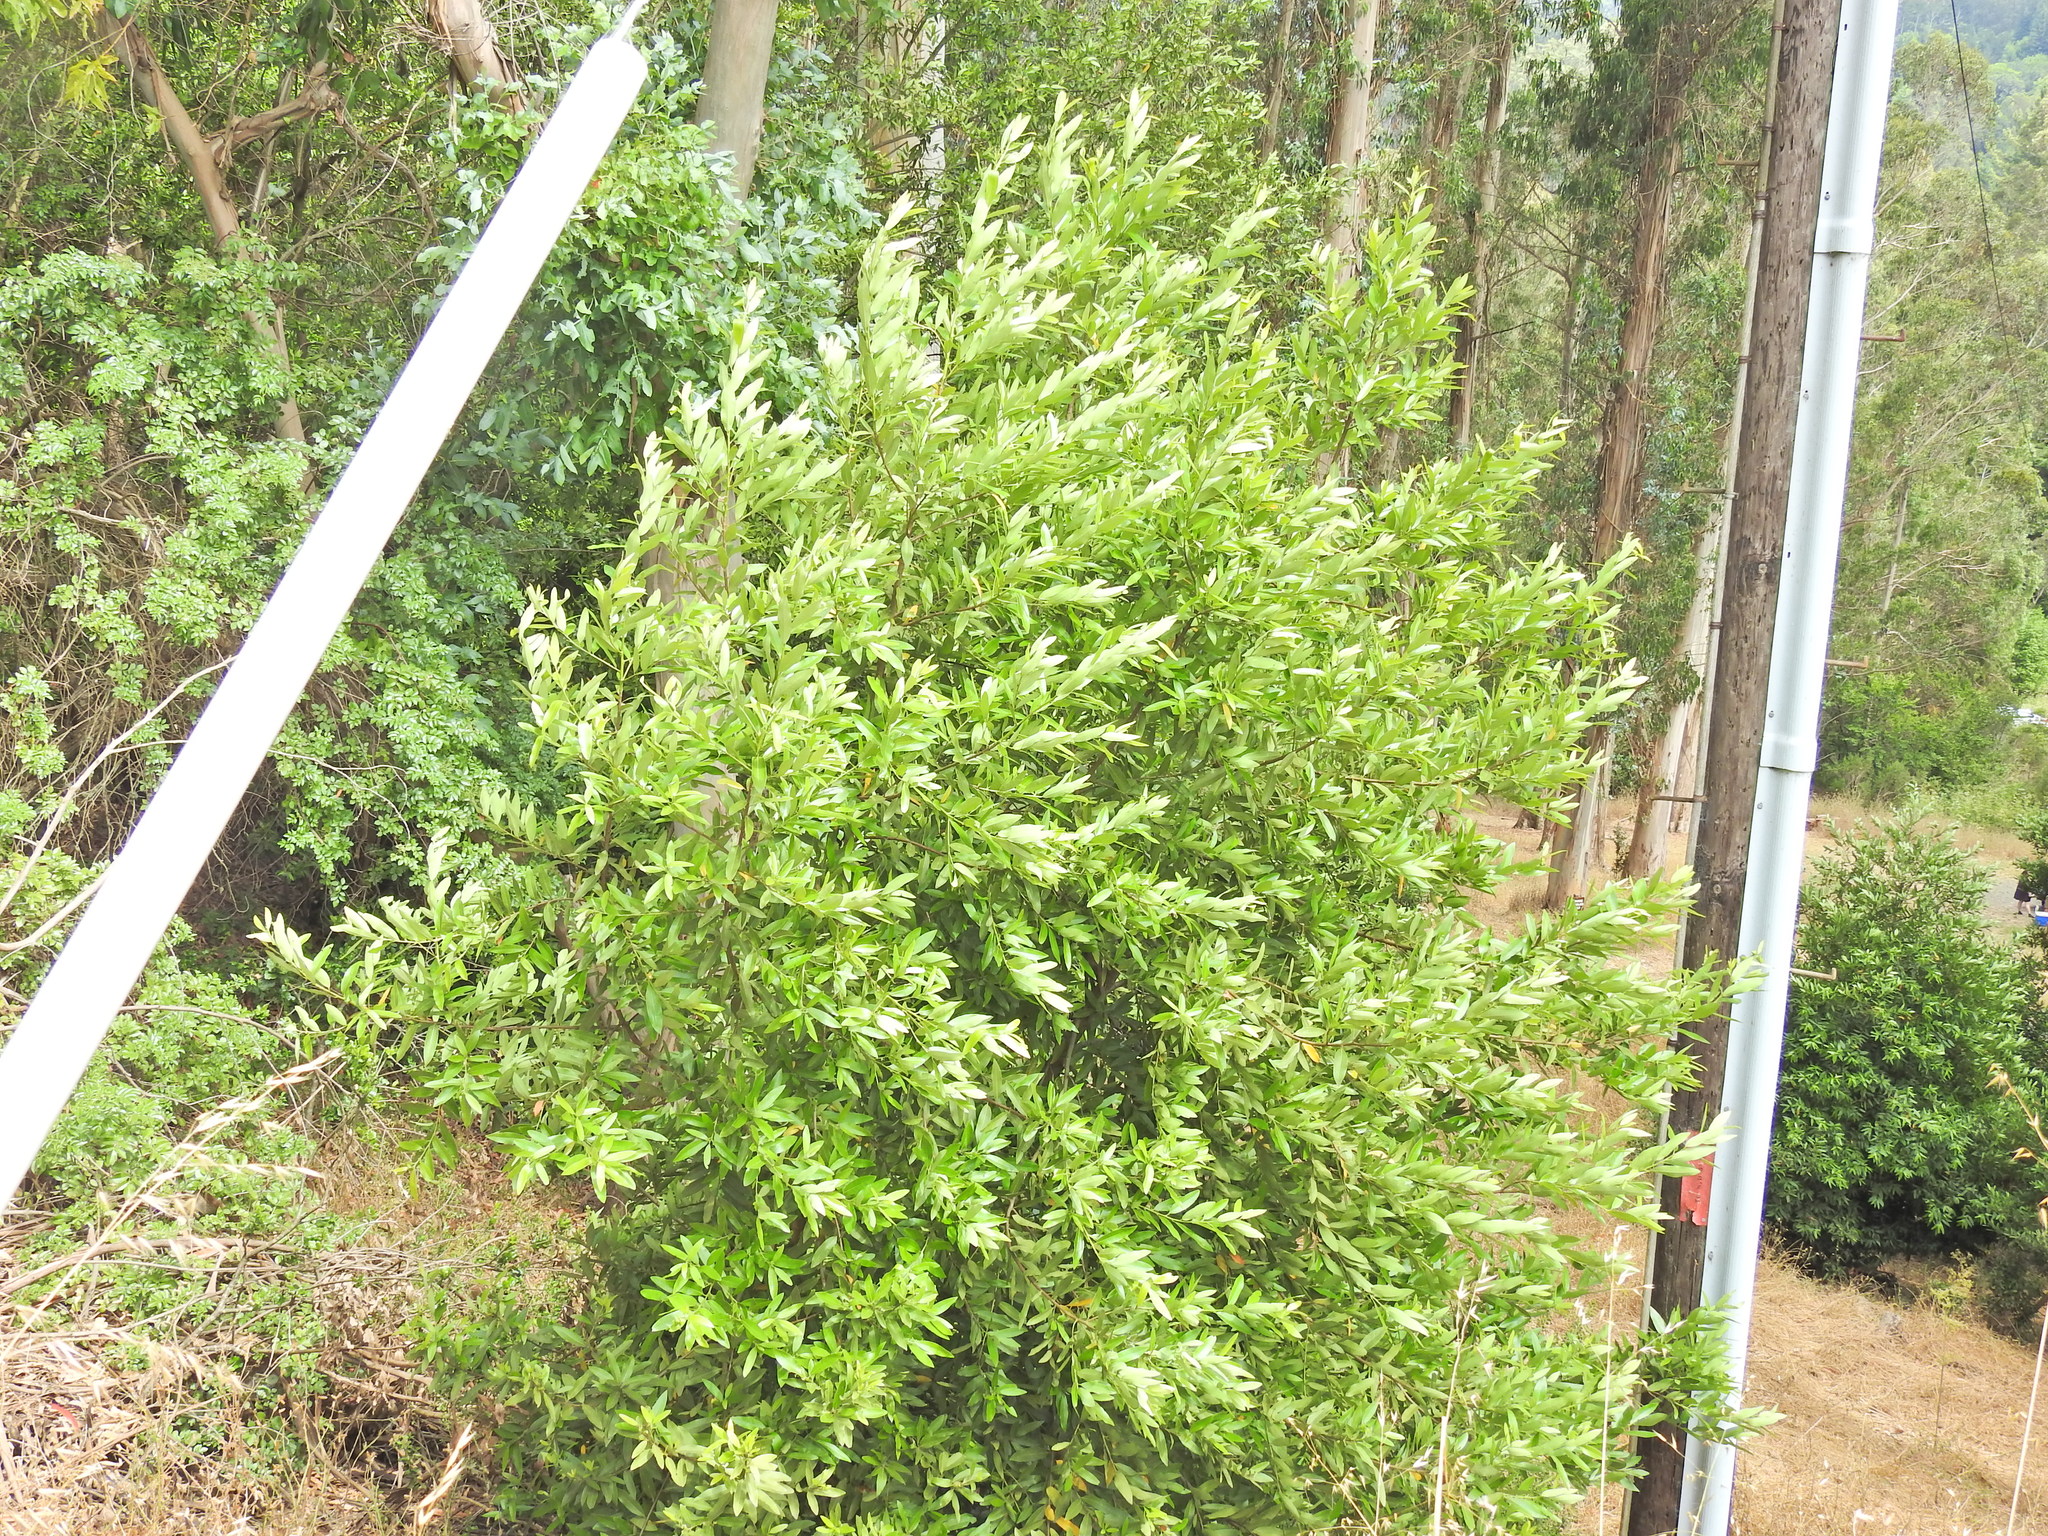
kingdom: Plantae
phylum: Tracheophyta
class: Magnoliopsida
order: Laurales
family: Lauraceae
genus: Umbellularia
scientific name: Umbellularia californica
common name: California bay
